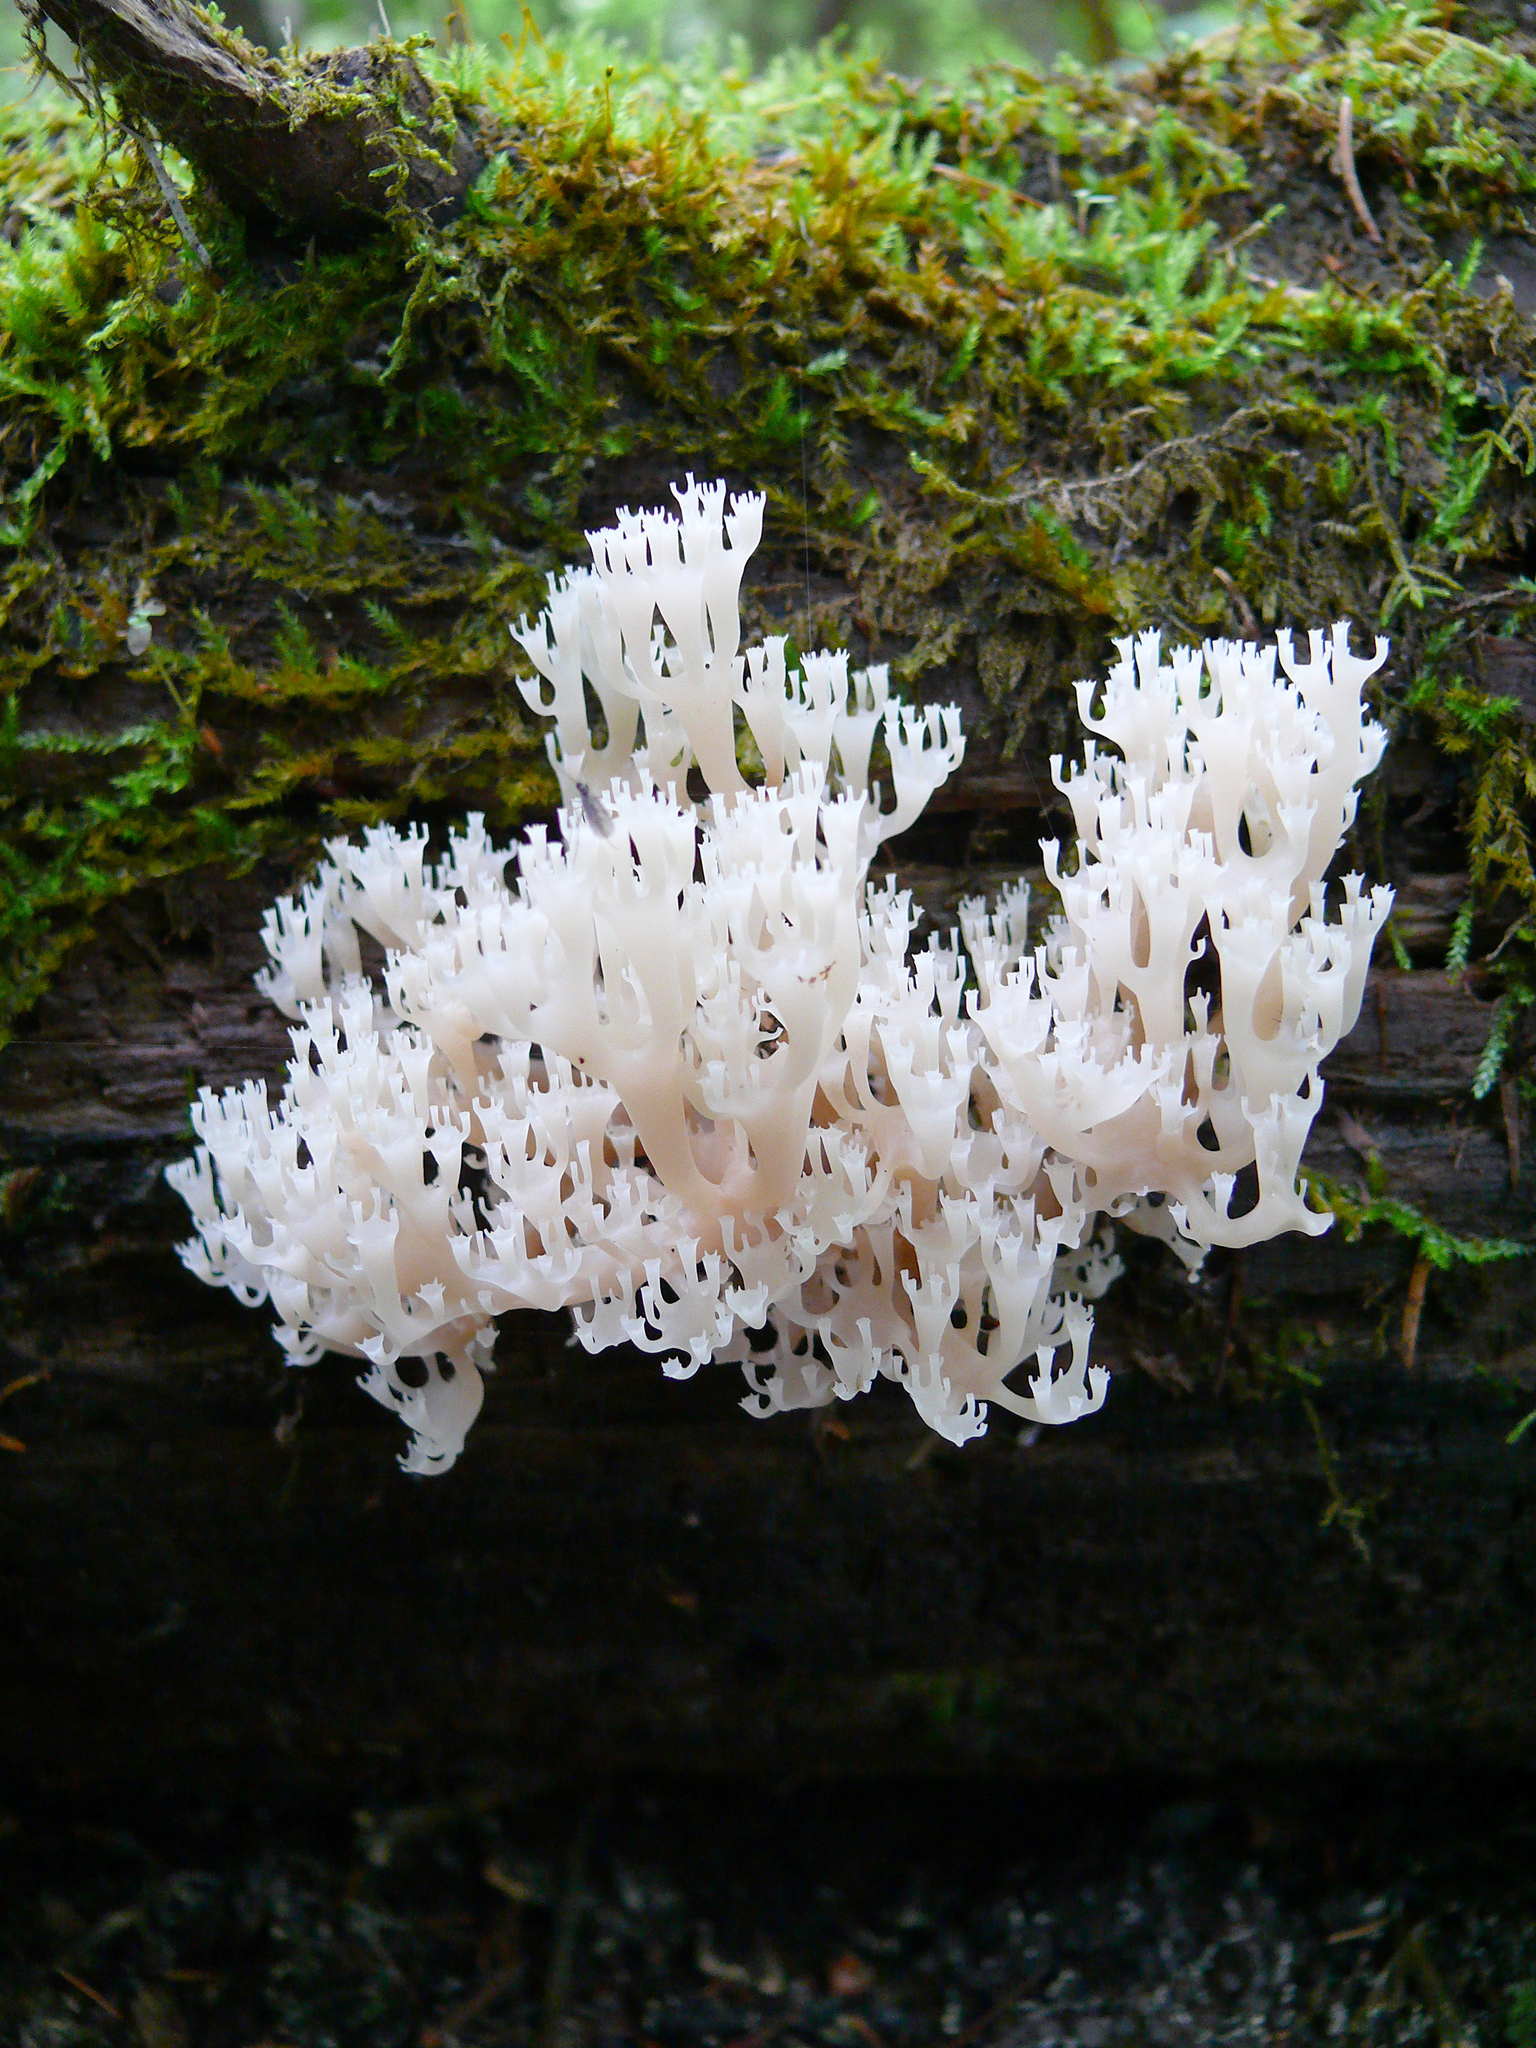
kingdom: Fungi
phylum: Basidiomycota
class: Agaricomycetes
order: Russulales
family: Auriscalpiaceae
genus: Artomyces
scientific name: Artomyces pyxidatus
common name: Crown-tipped coral fungus
